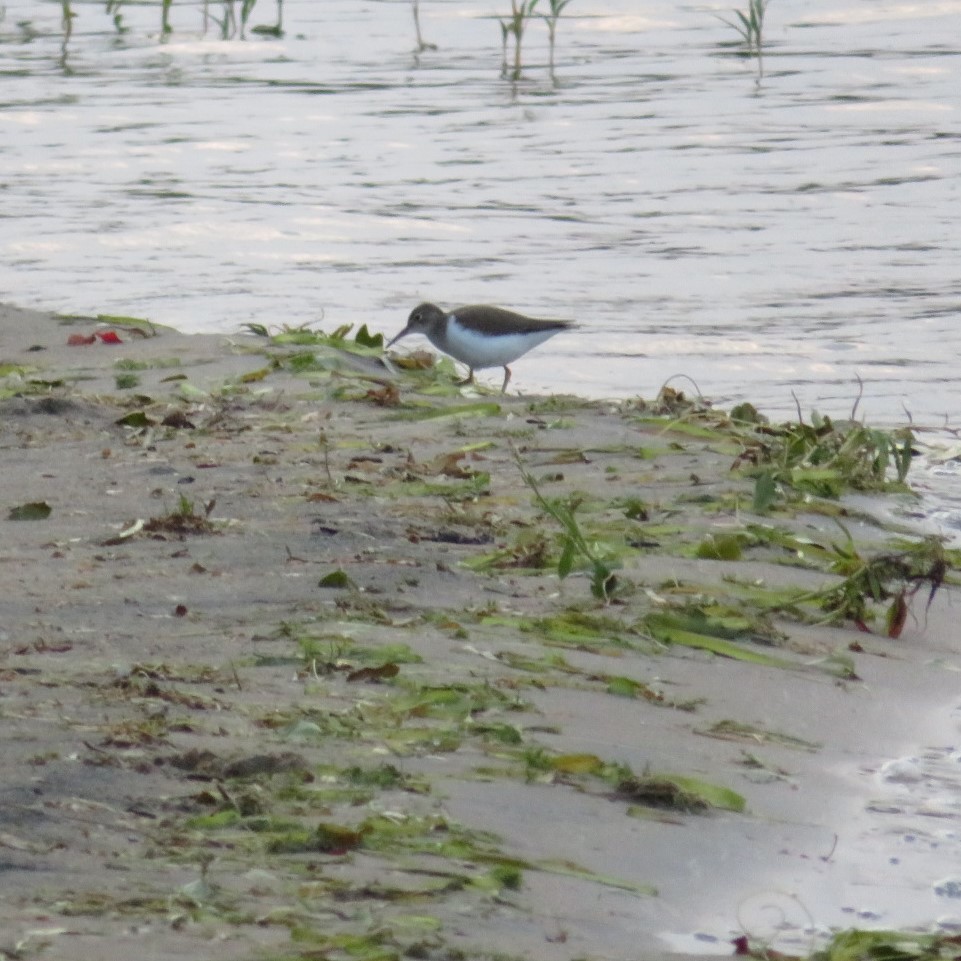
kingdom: Animalia
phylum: Chordata
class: Aves
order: Charadriiformes
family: Scolopacidae
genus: Actitis
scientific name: Actitis macularius
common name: Spotted sandpiper
